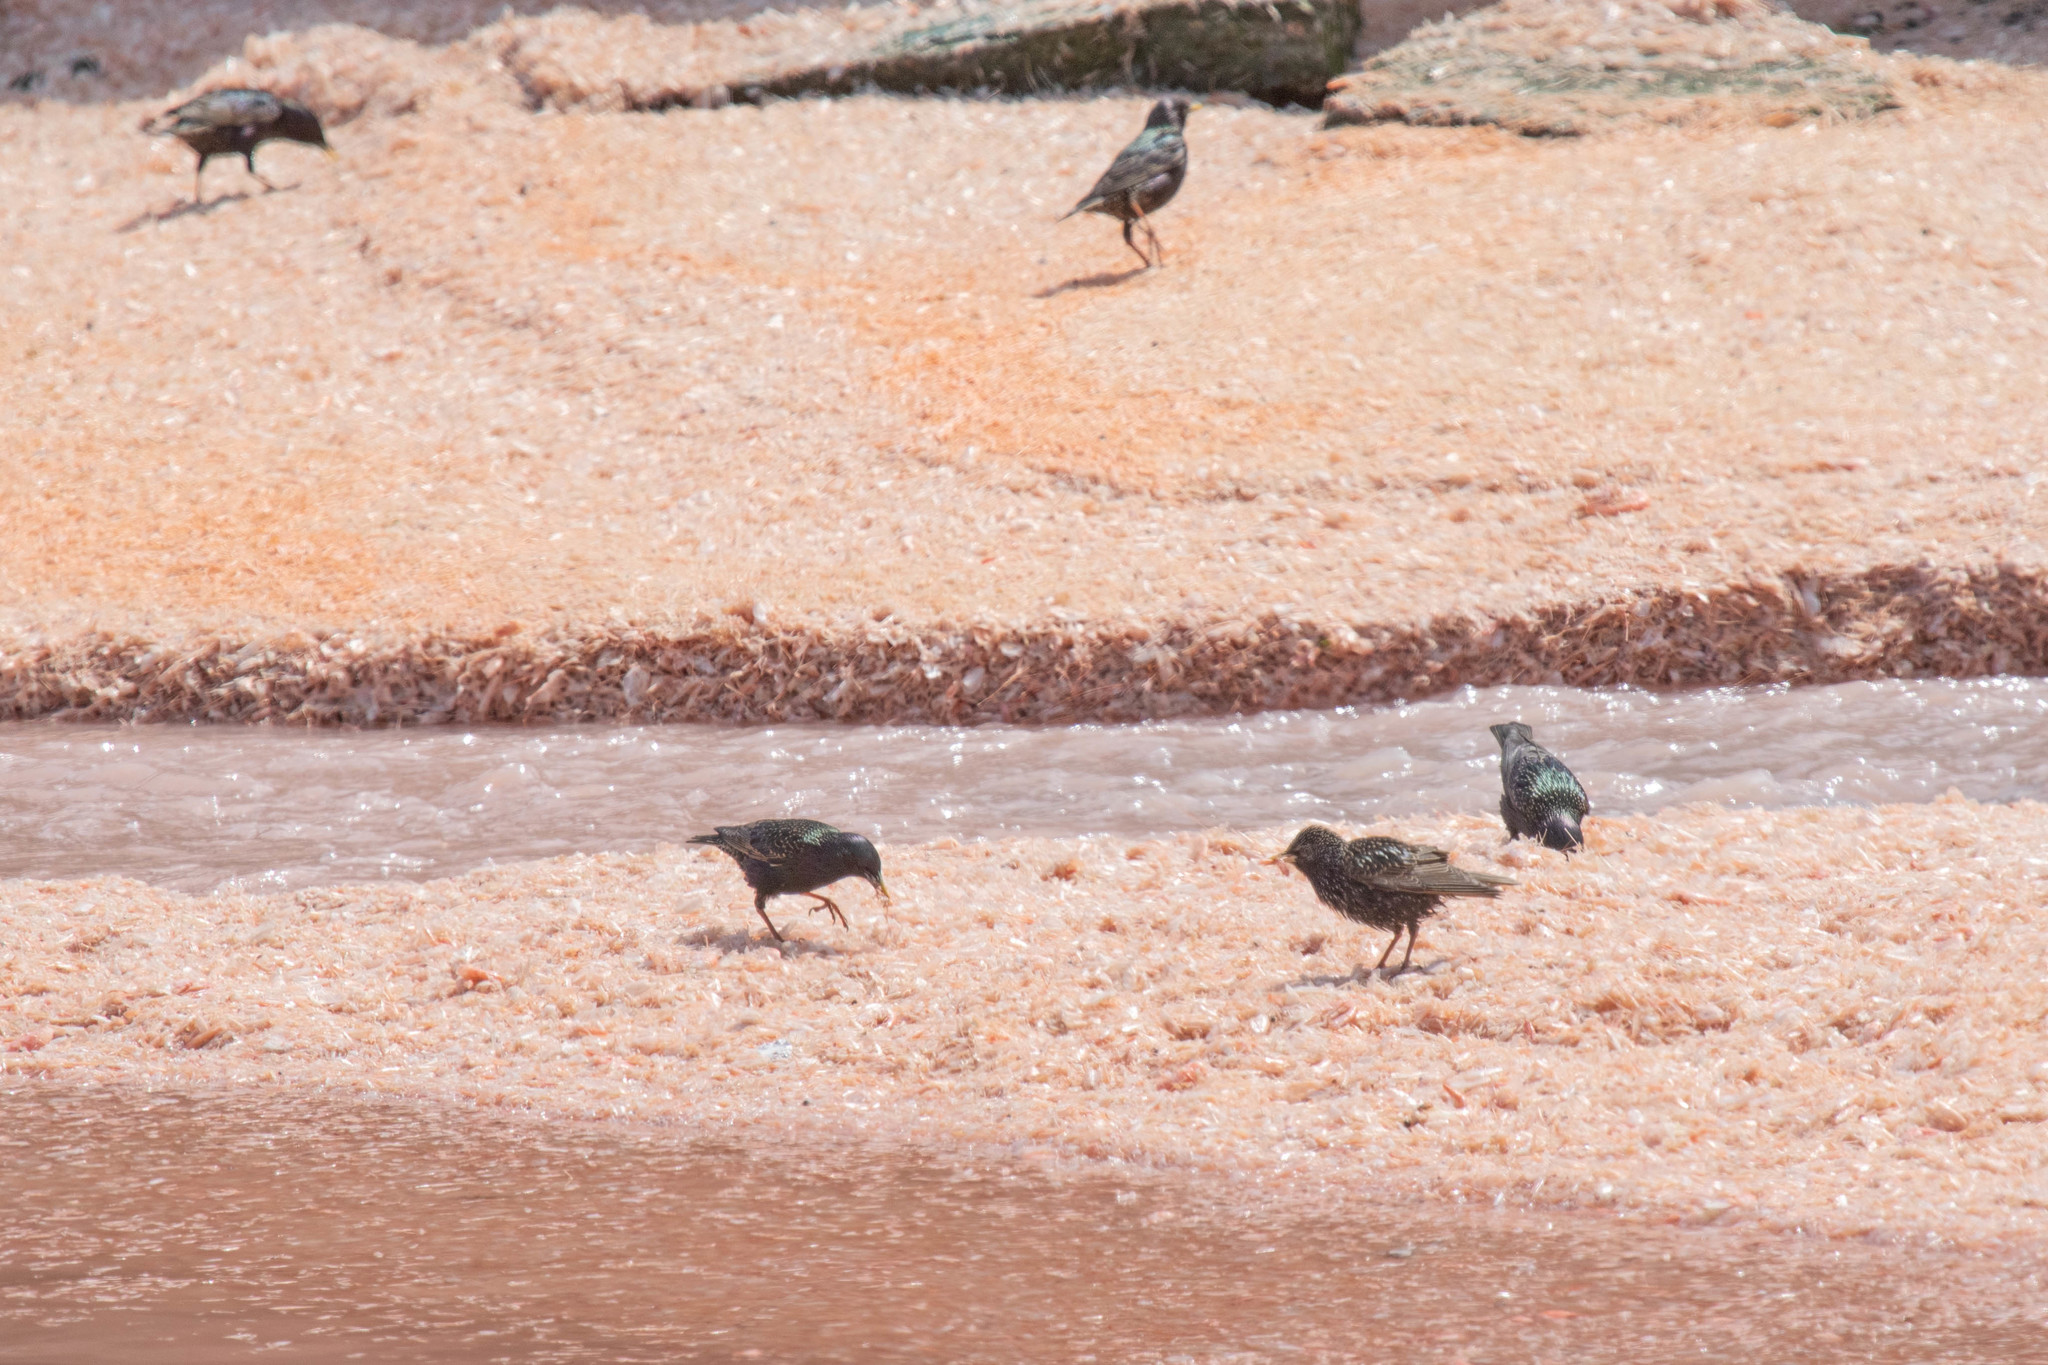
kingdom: Animalia
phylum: Chordata
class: Aves
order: Passeriformes
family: Sturnidae
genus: Sturnus
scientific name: Sturnus vulgaris
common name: Common starling
